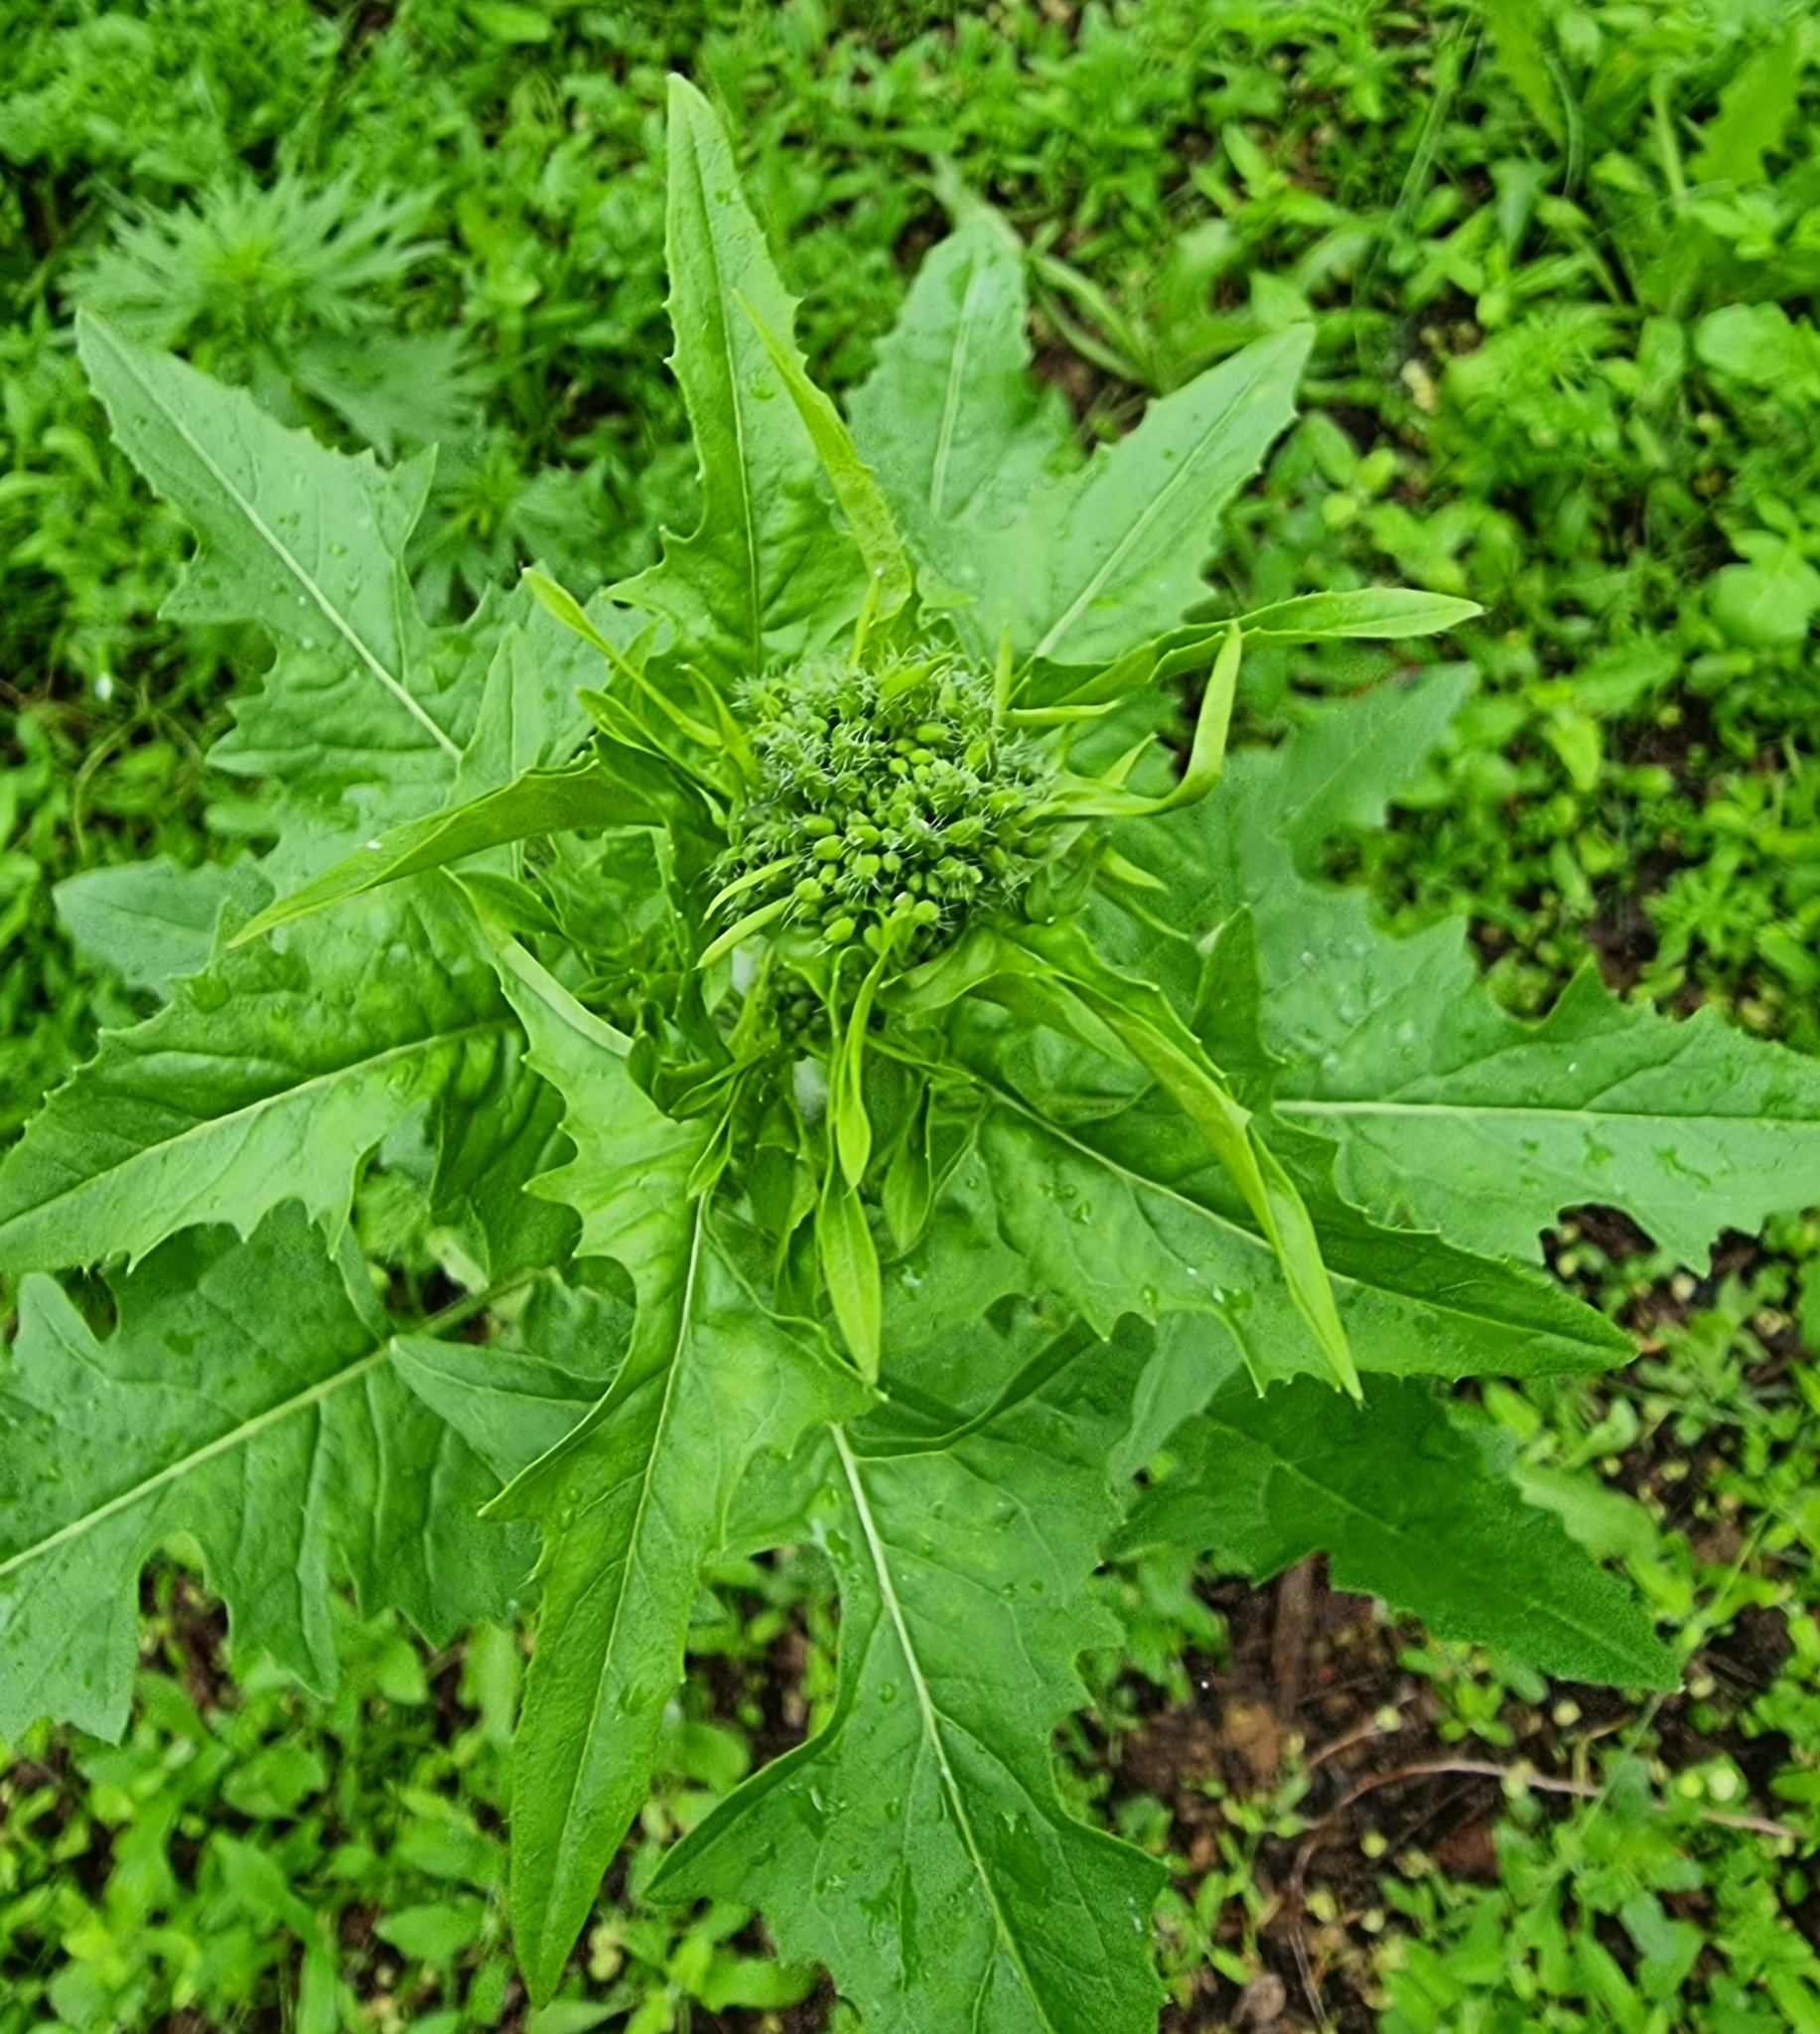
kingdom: Plantae
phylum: Tracheophyta
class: Magnoliopsida
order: Brassicales
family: Brassicaceae
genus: Sisymbrium
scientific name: Sisymbrium loeselii
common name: False london-rocket
